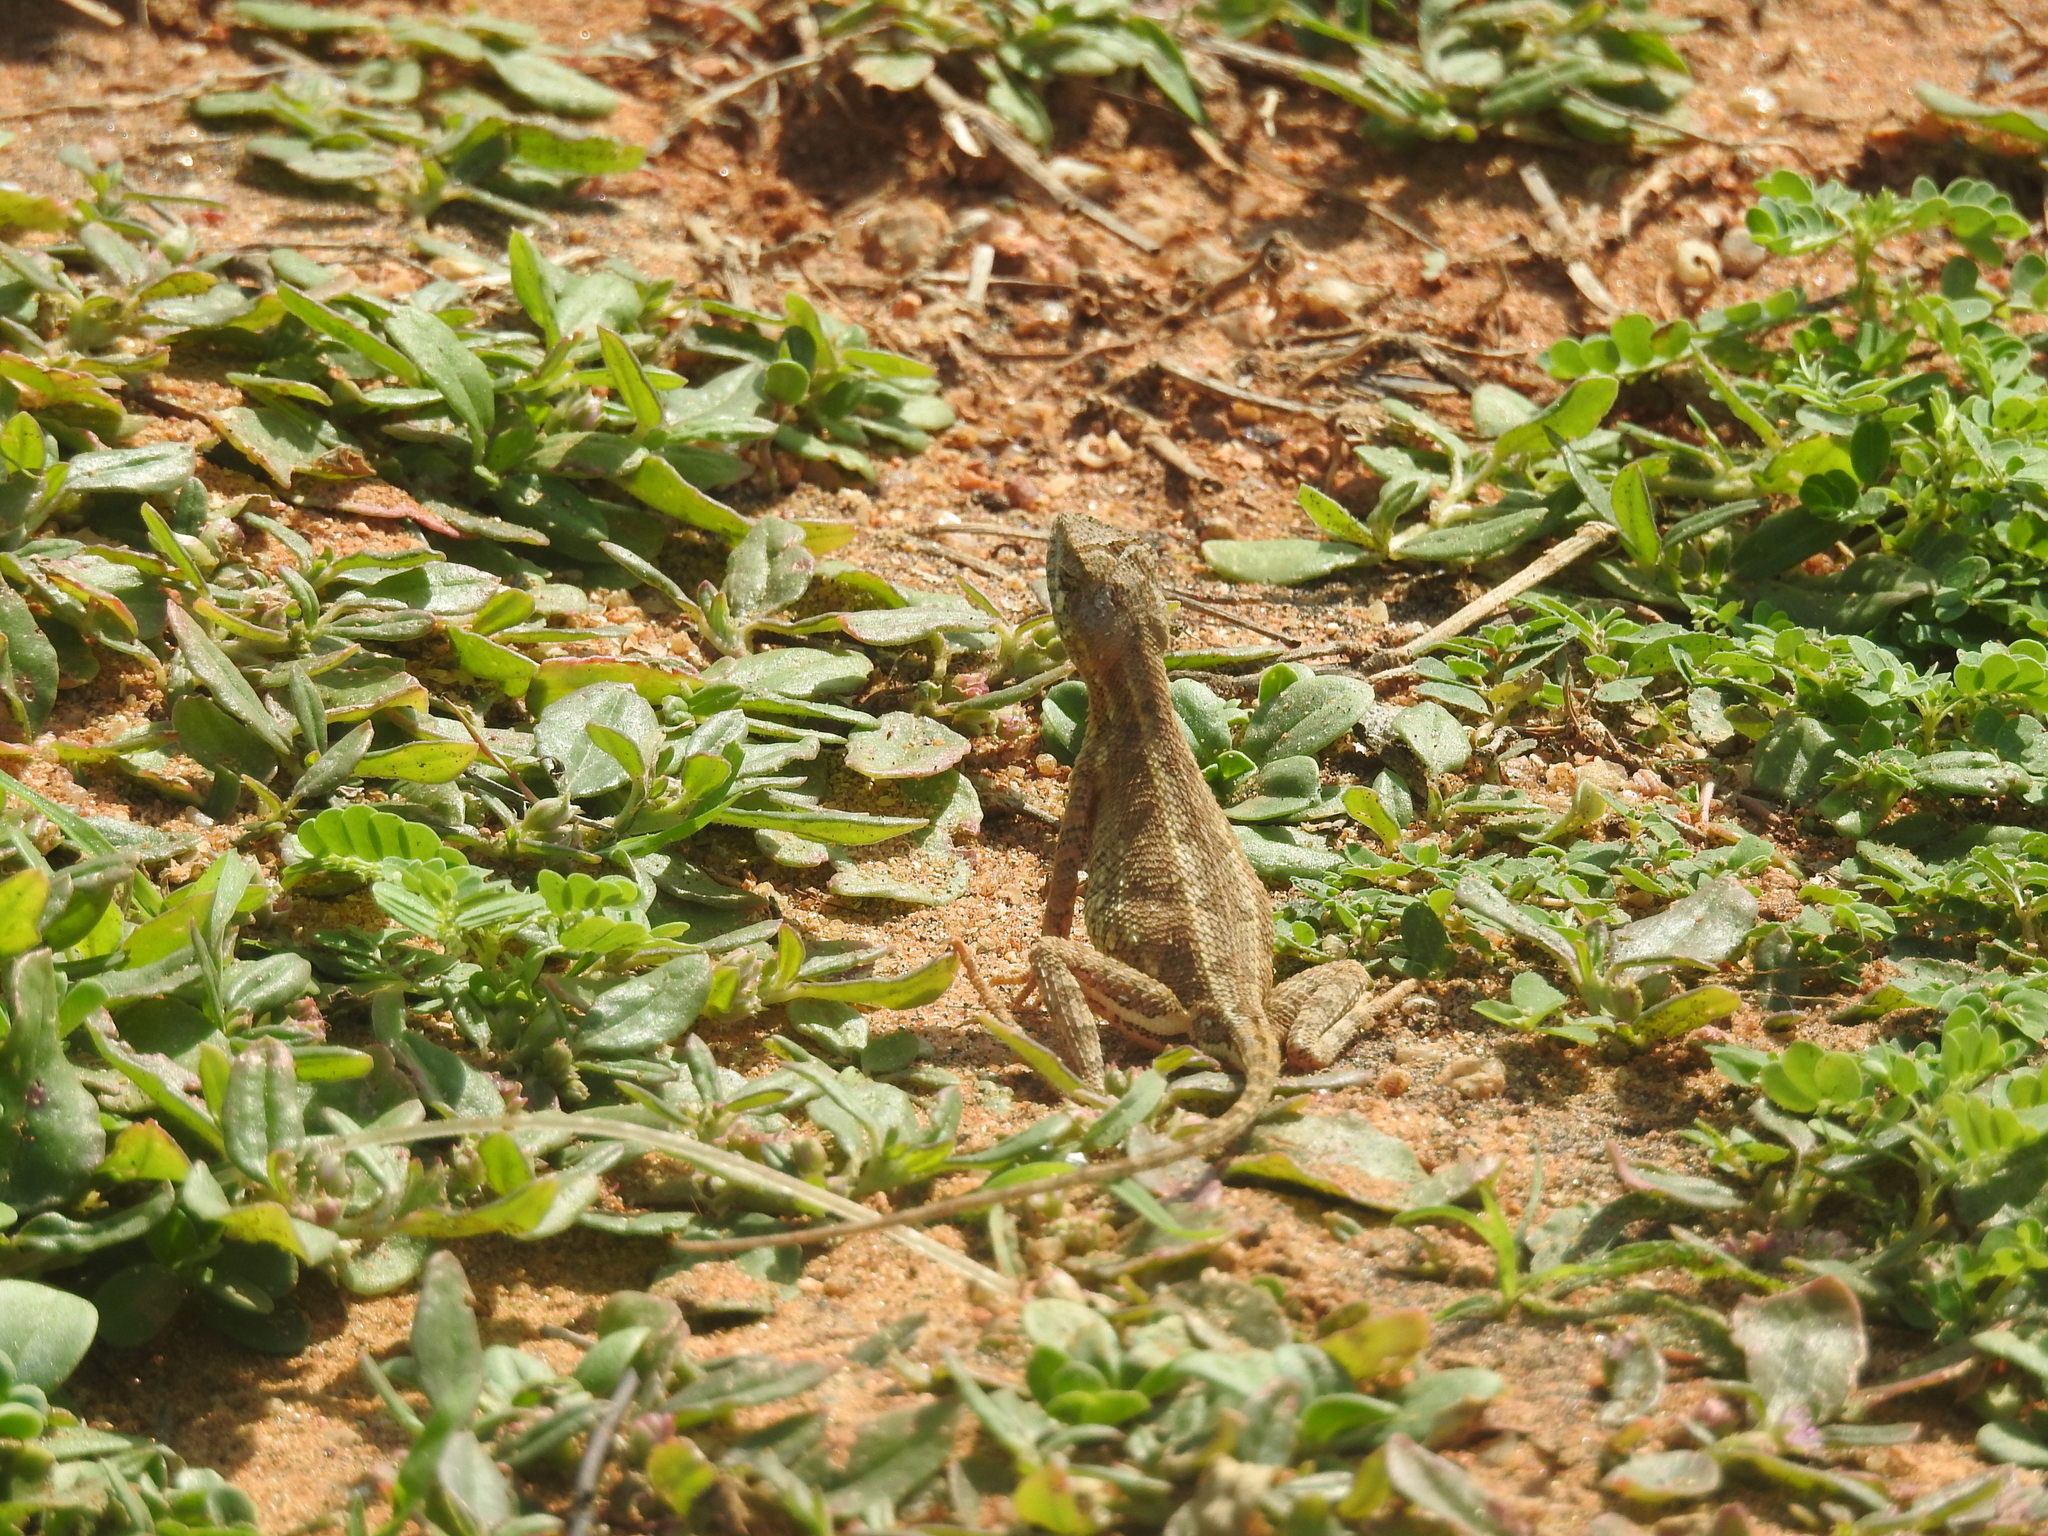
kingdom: Animalia
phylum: Chordata
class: Squamata
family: Agamidae
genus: Sitana
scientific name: Sitana marudhamneydhal
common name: Attenborough’s fan-throated lizard
